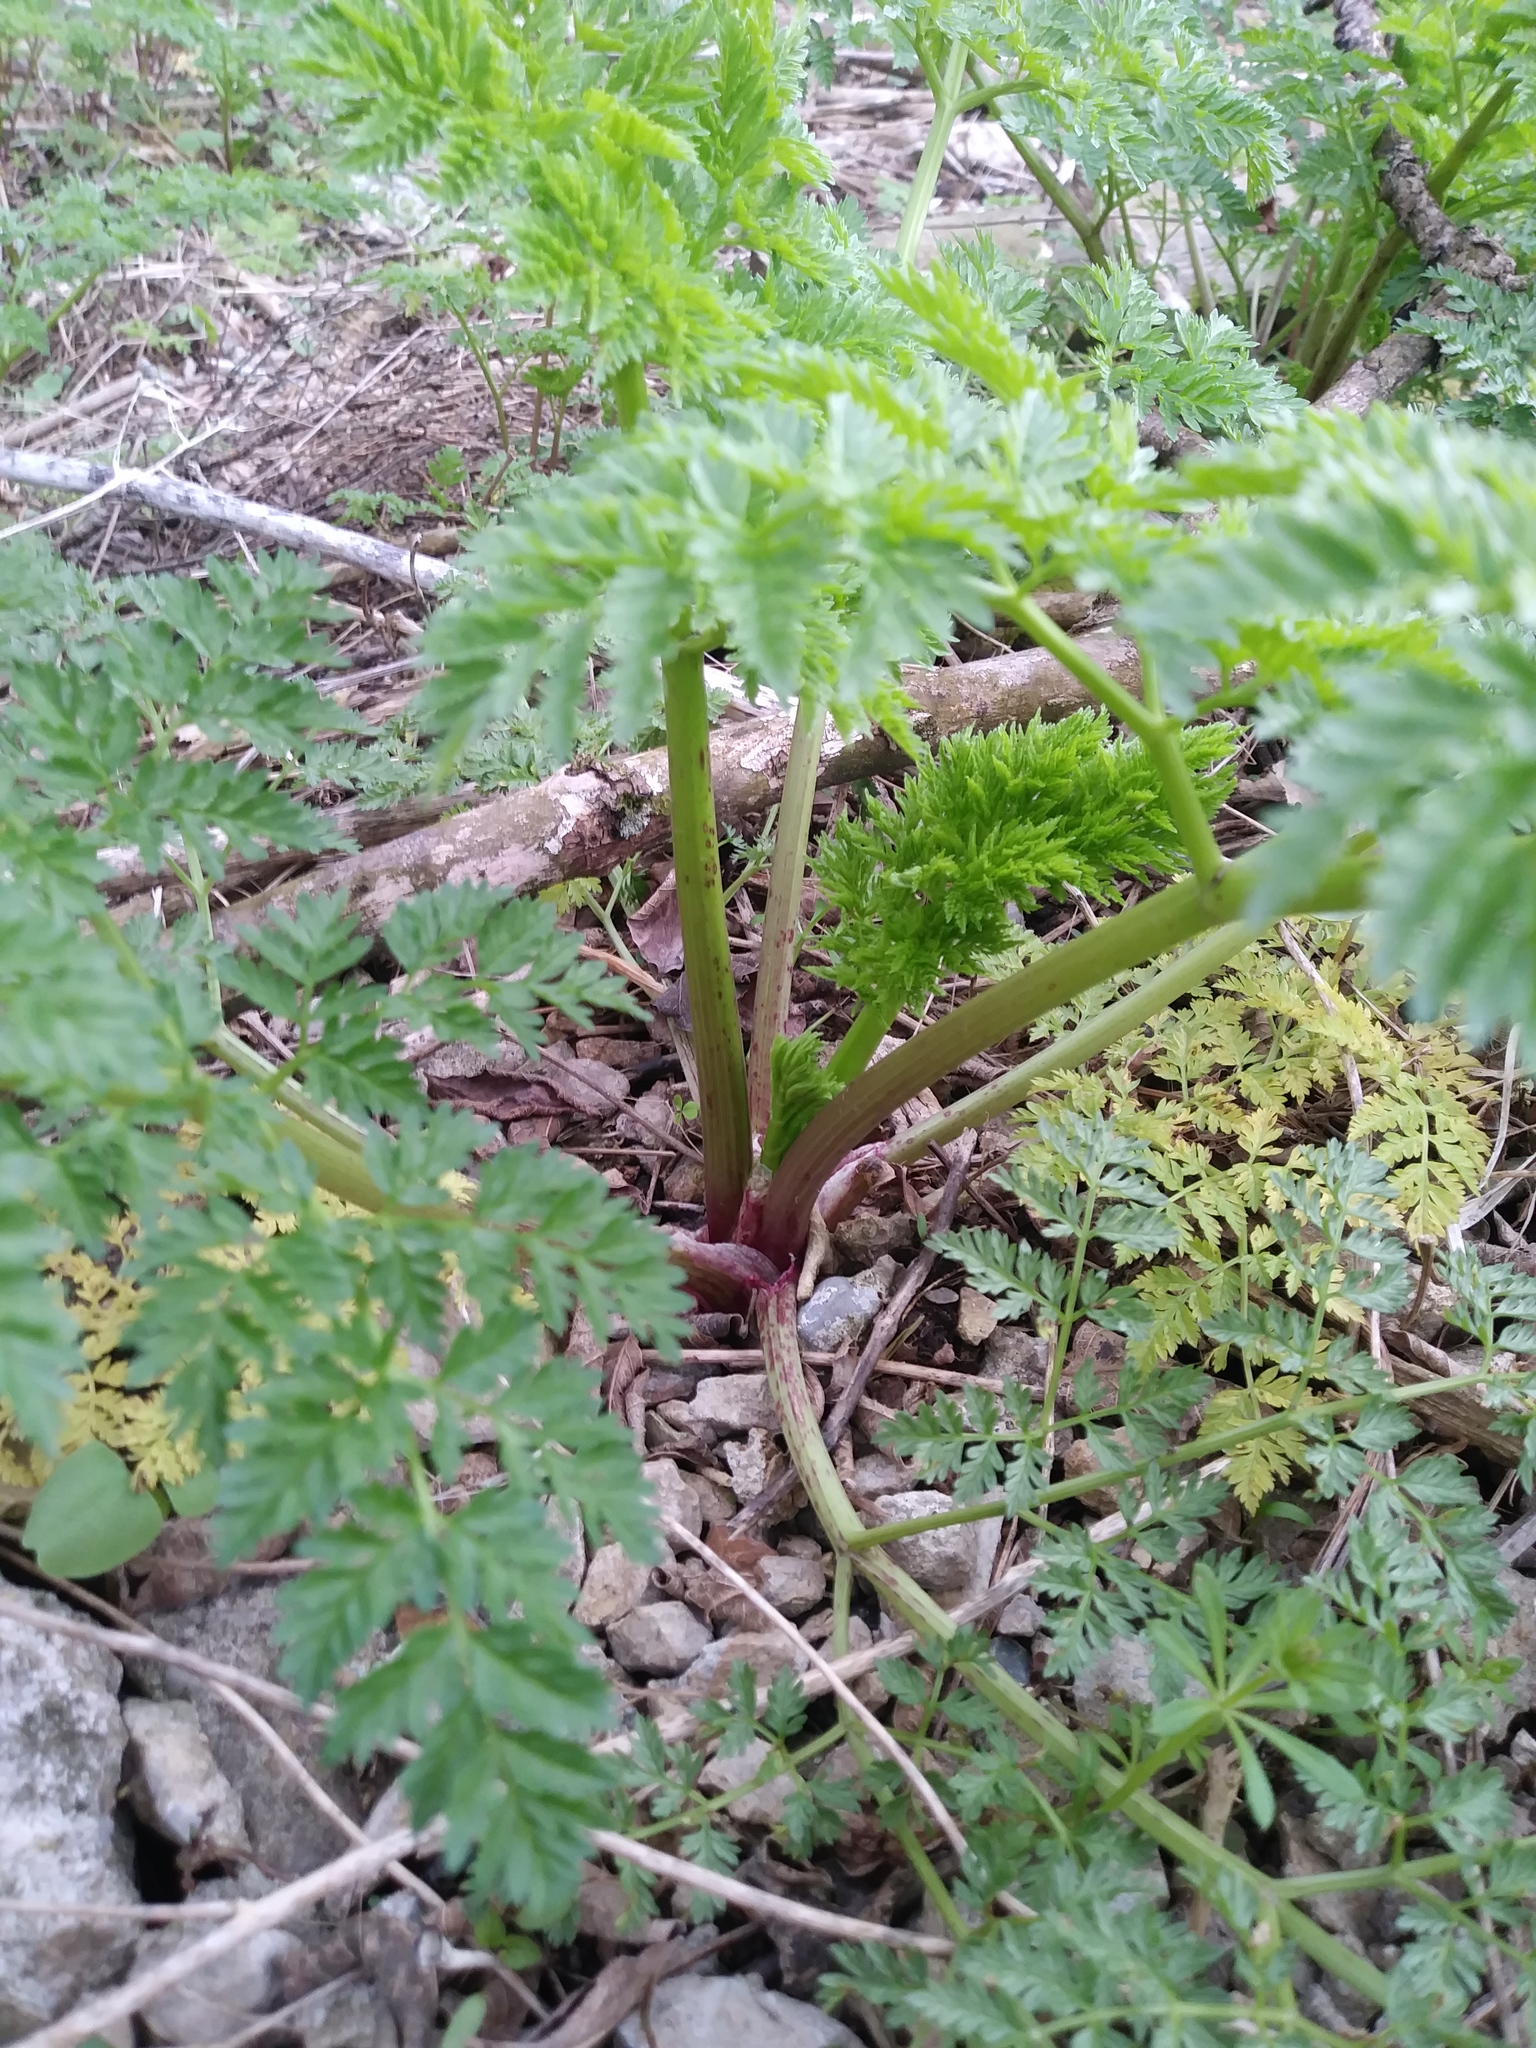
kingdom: Plantae
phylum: Tracheophyta
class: Magnoliopsida
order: Apiales
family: Apiaceae
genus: Conium
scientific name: Conium maculatum
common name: Hemlock
